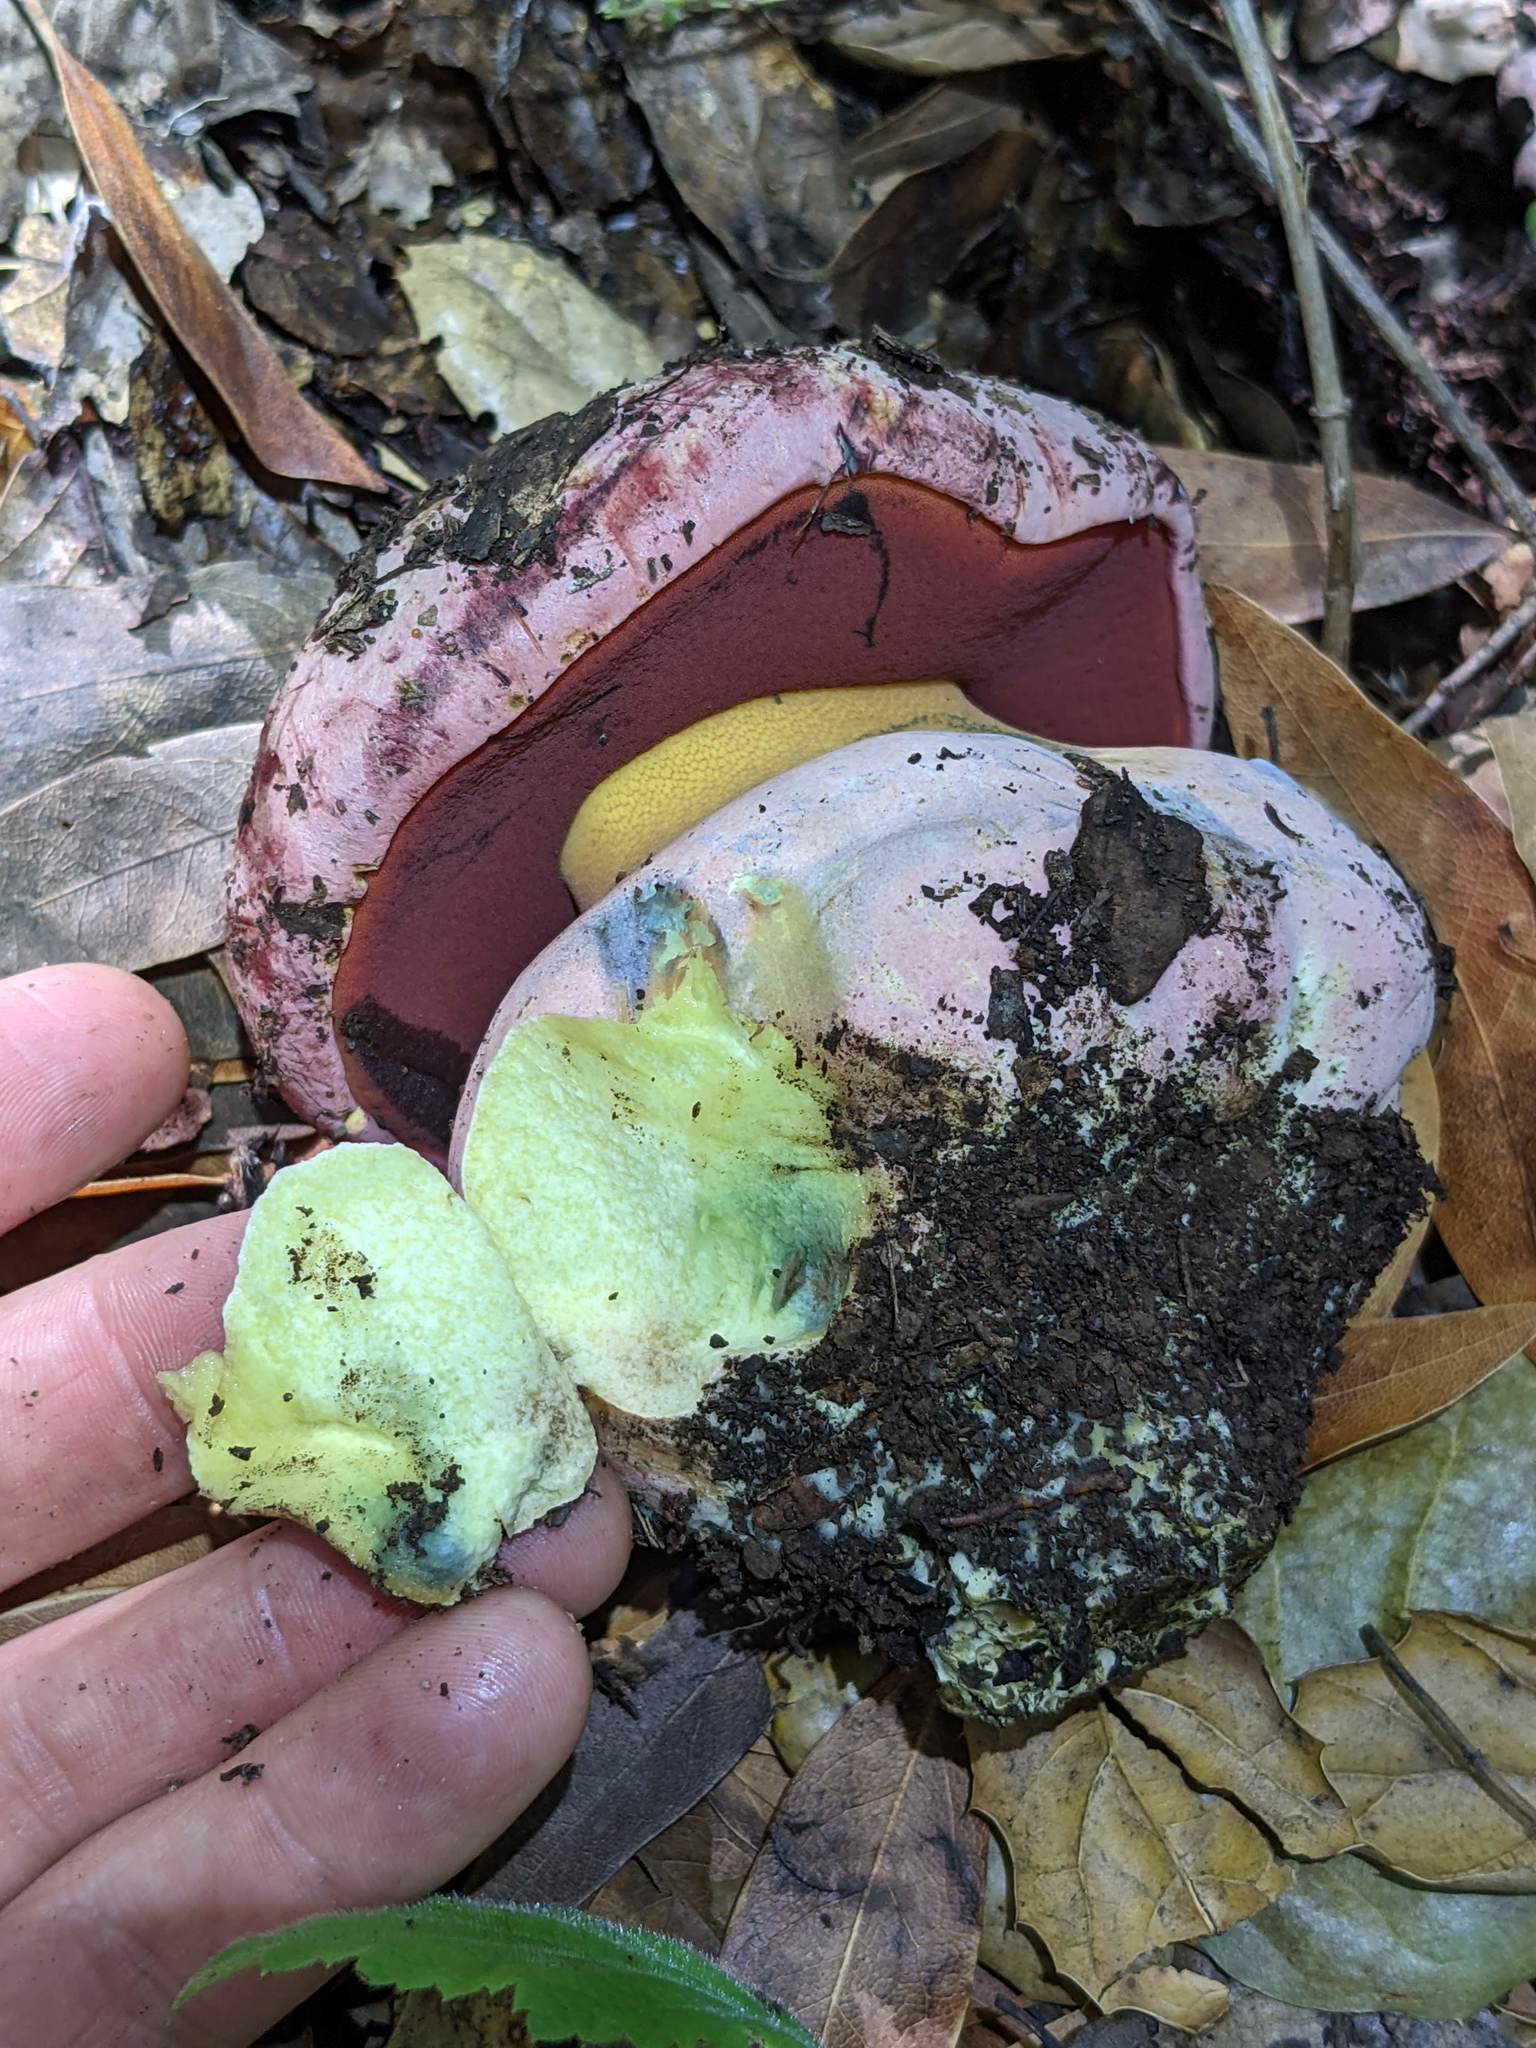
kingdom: Fungi
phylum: Basidiomycota
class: Agaricomycetes
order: Boletales
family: Boletaceae
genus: Rubroboletus
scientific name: Rubroboletus eastwoodiae
